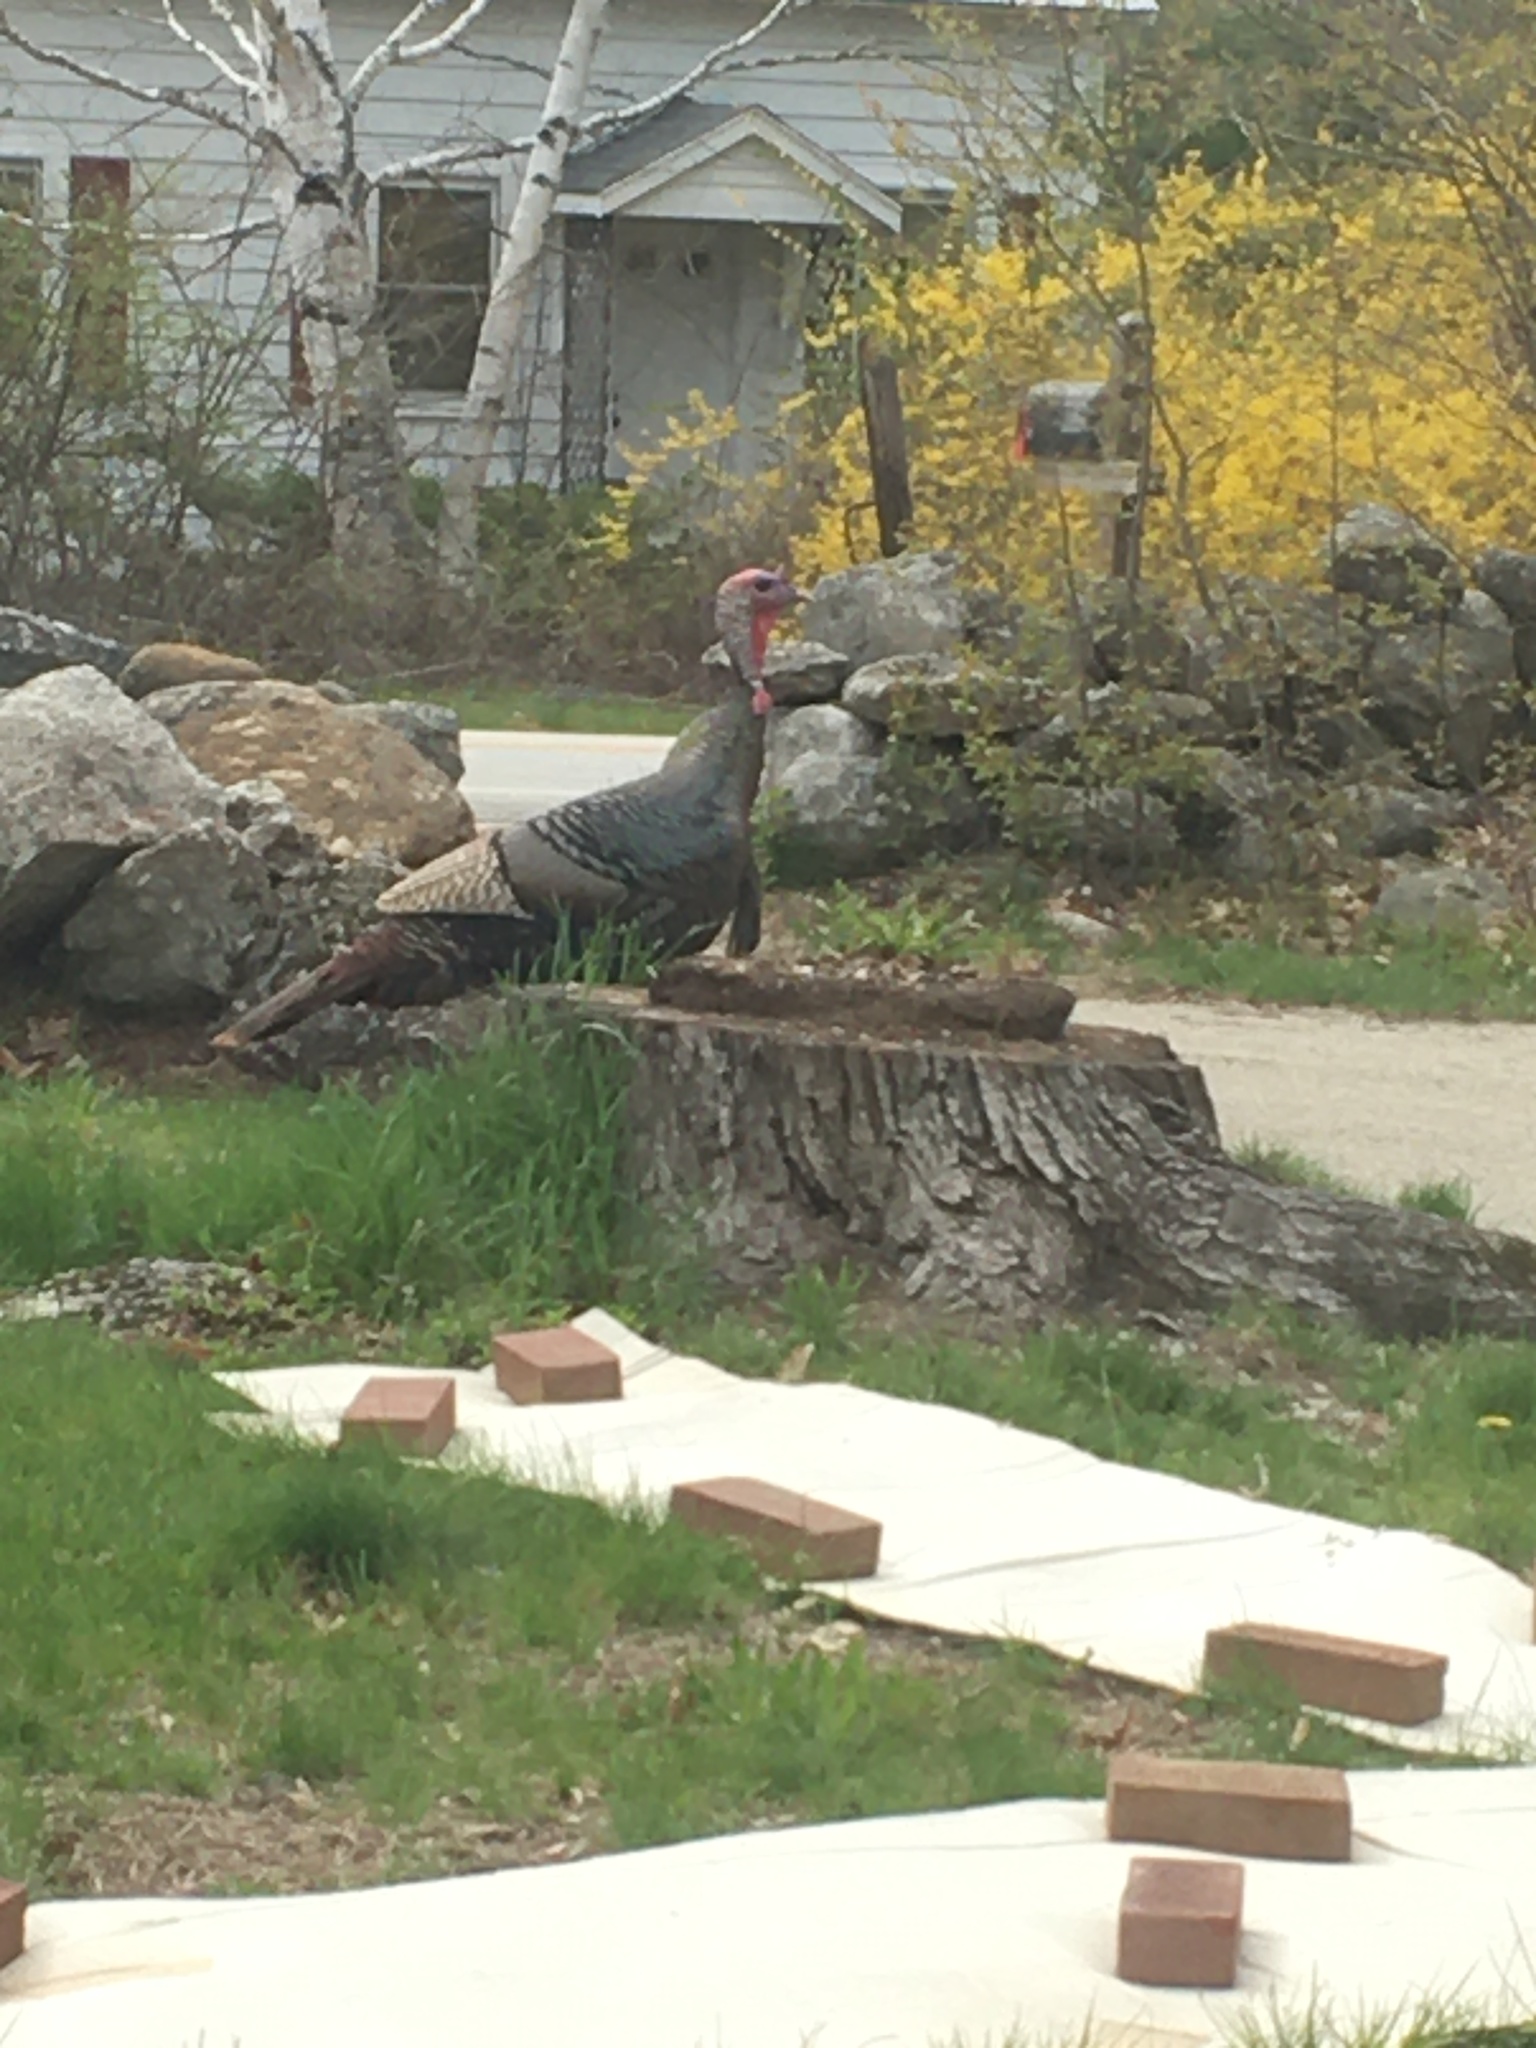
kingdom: Animalia
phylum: Chordata
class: Aves
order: Galliformes
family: Phasianidae
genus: Meleagris
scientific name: Meleagris gallopavo
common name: Wild turkey
